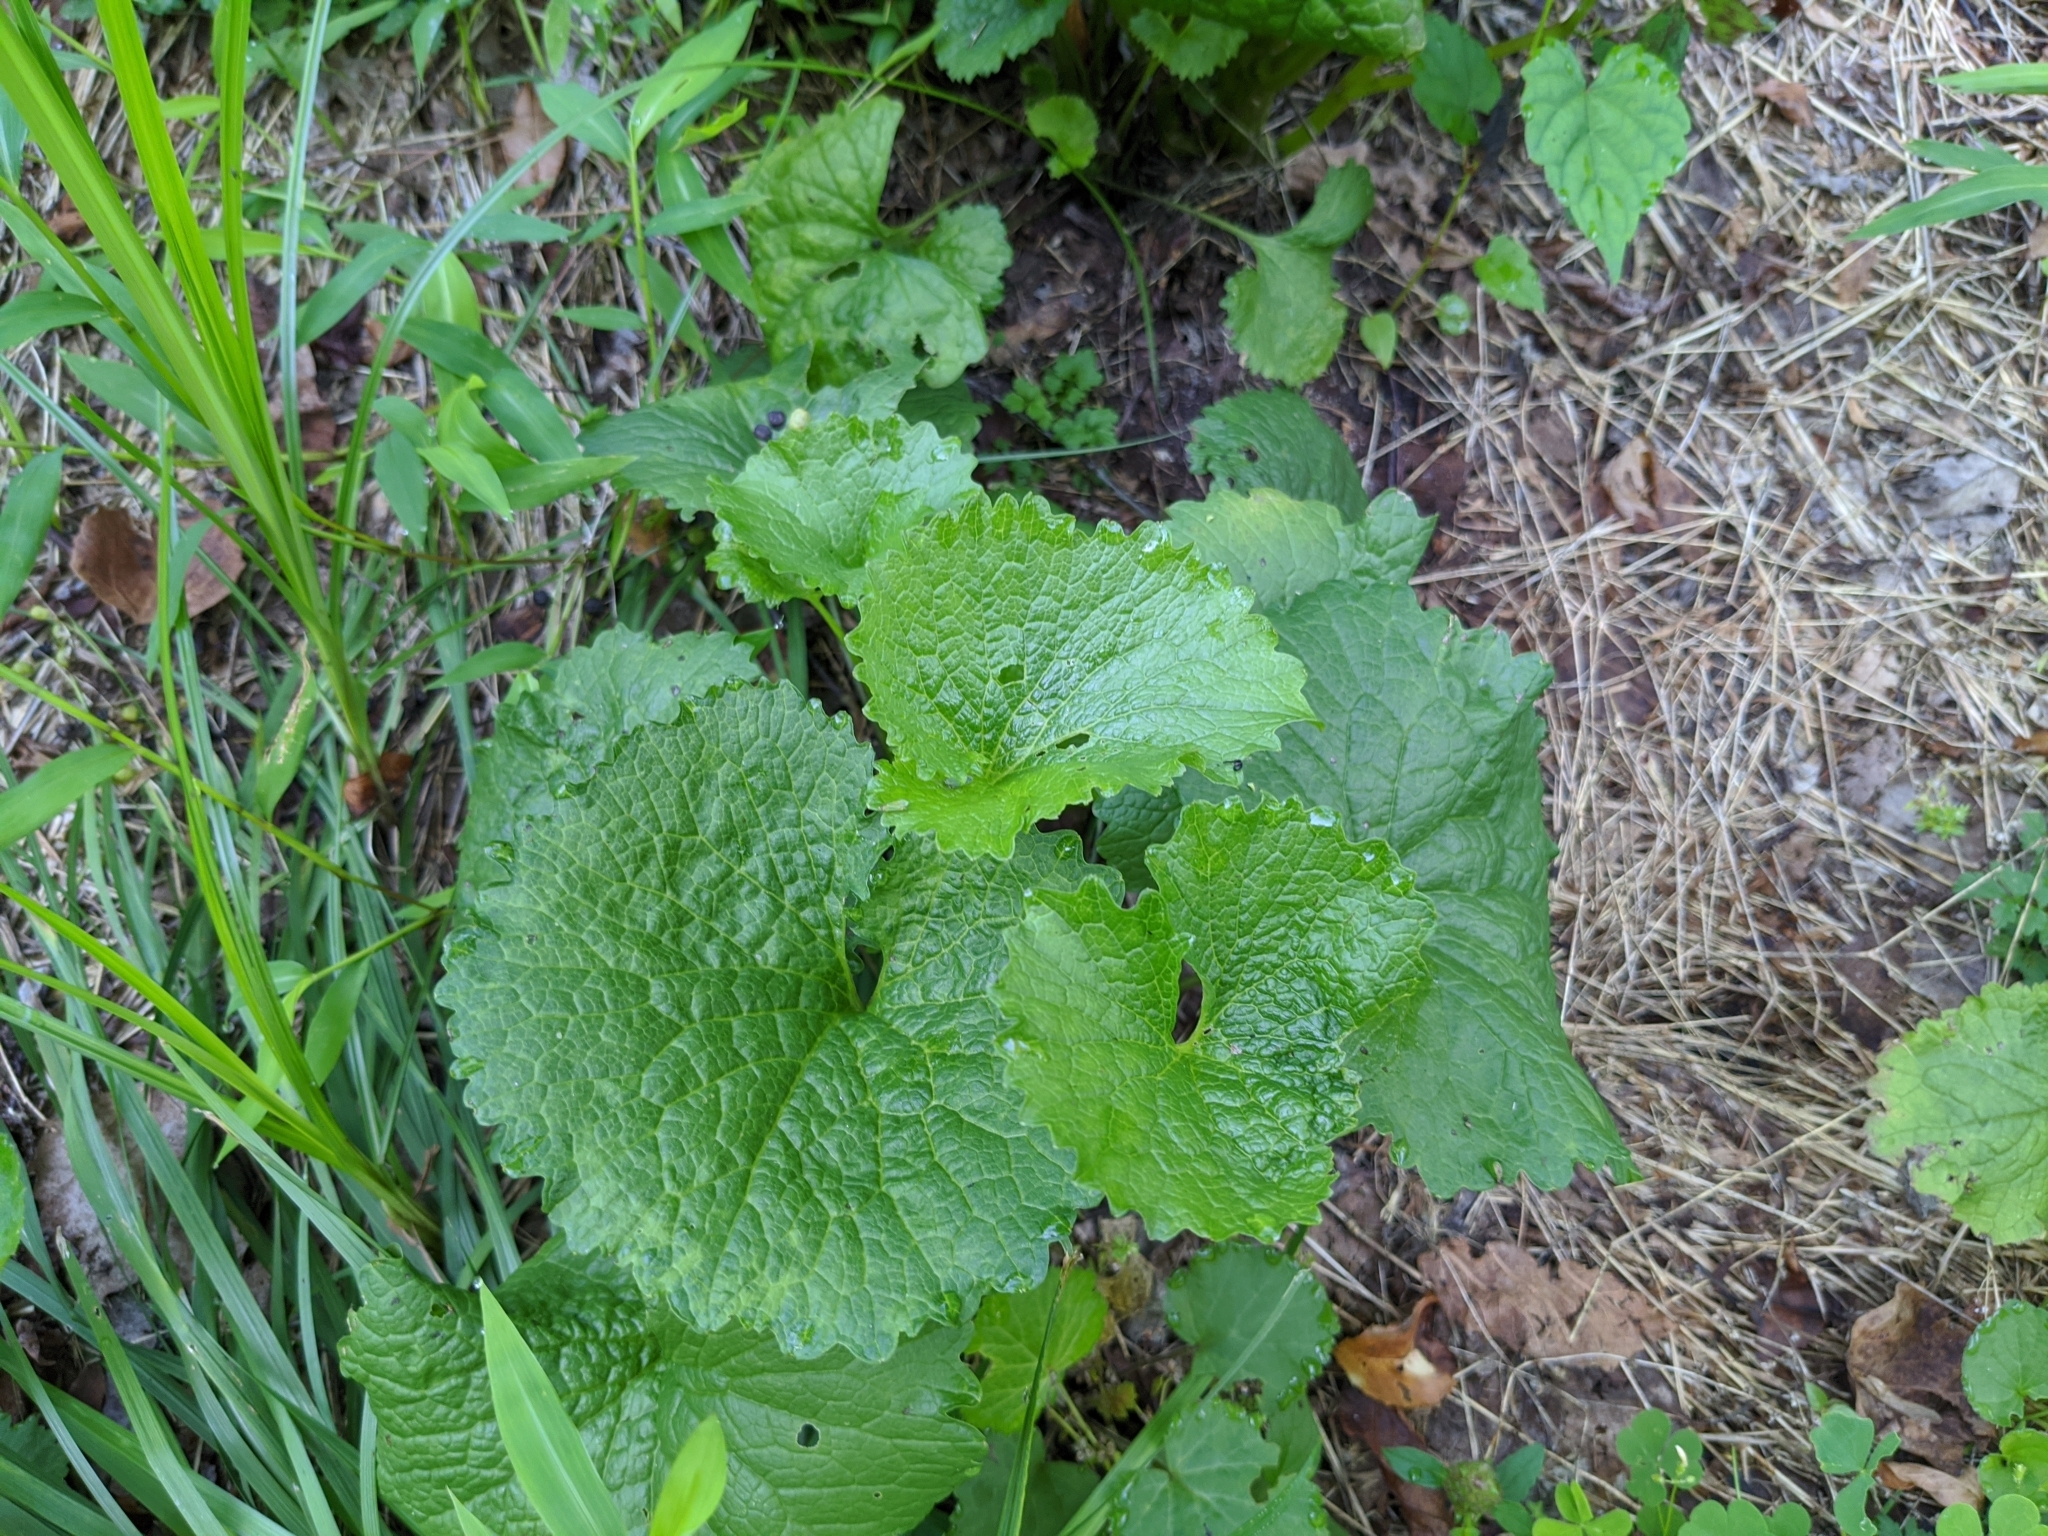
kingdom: Plantae
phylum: Tracheophyta
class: Magnoliopsida
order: Brassicales
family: Brassicaceae
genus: Alliaria
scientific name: Alliaria petiolata
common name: Garlic mustard
